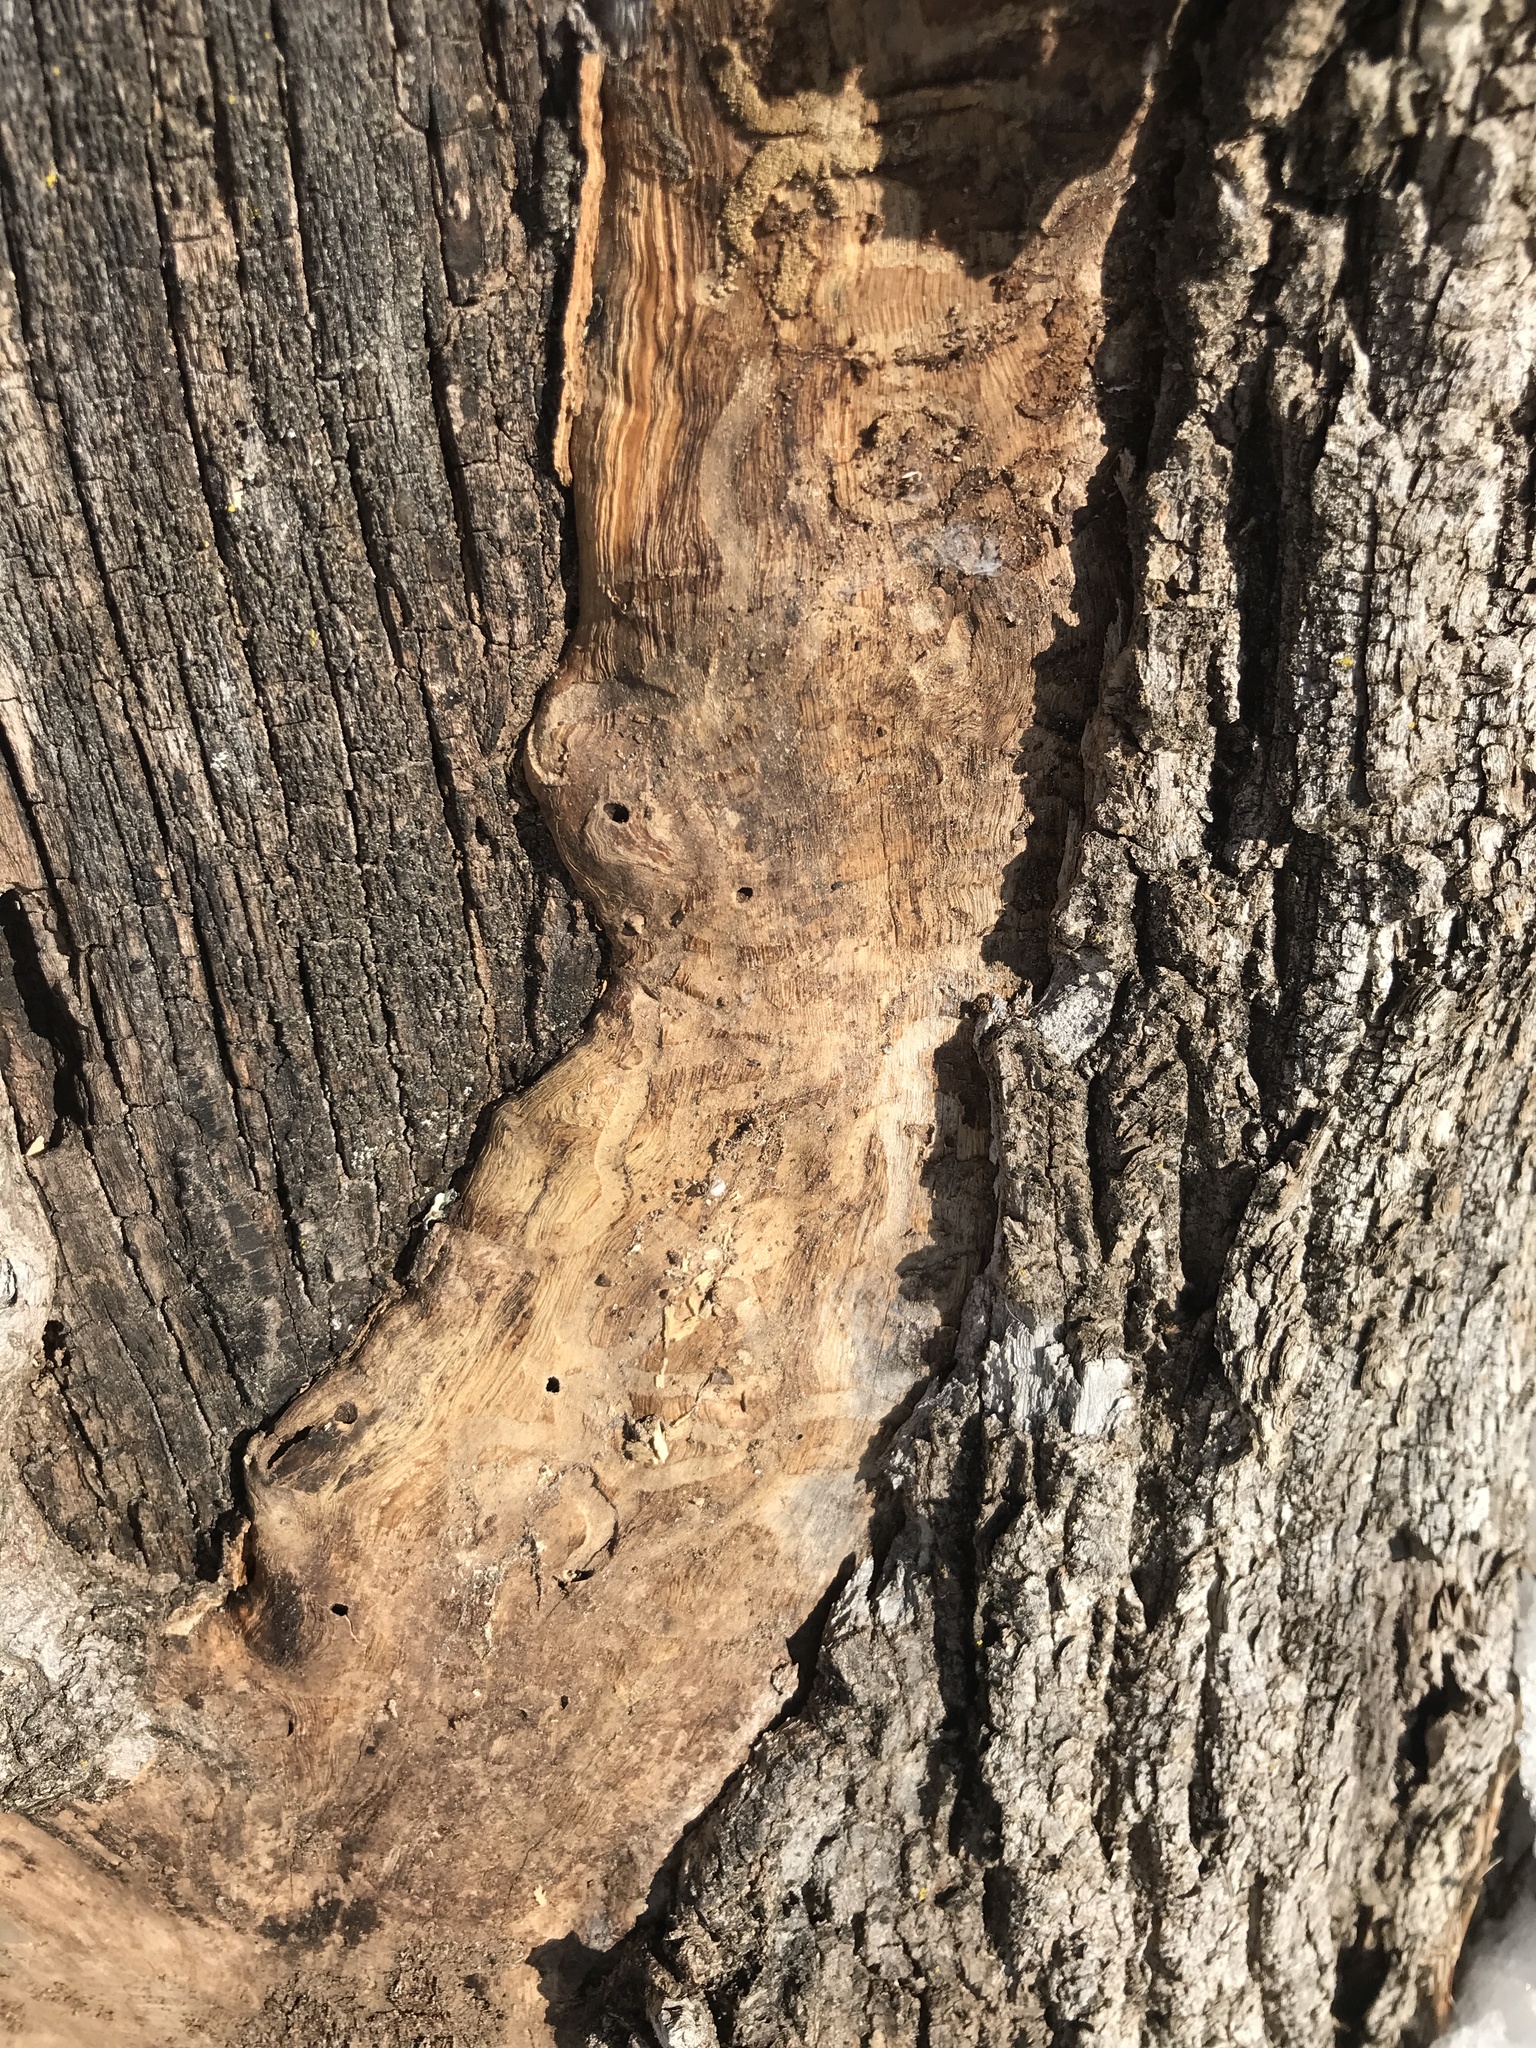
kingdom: Animalia
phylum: Arthropoda
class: Insecta
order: Coleoptera
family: Buprestidae
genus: Agrilus
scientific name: Agrilus planipennis
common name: Emerald ash borer
